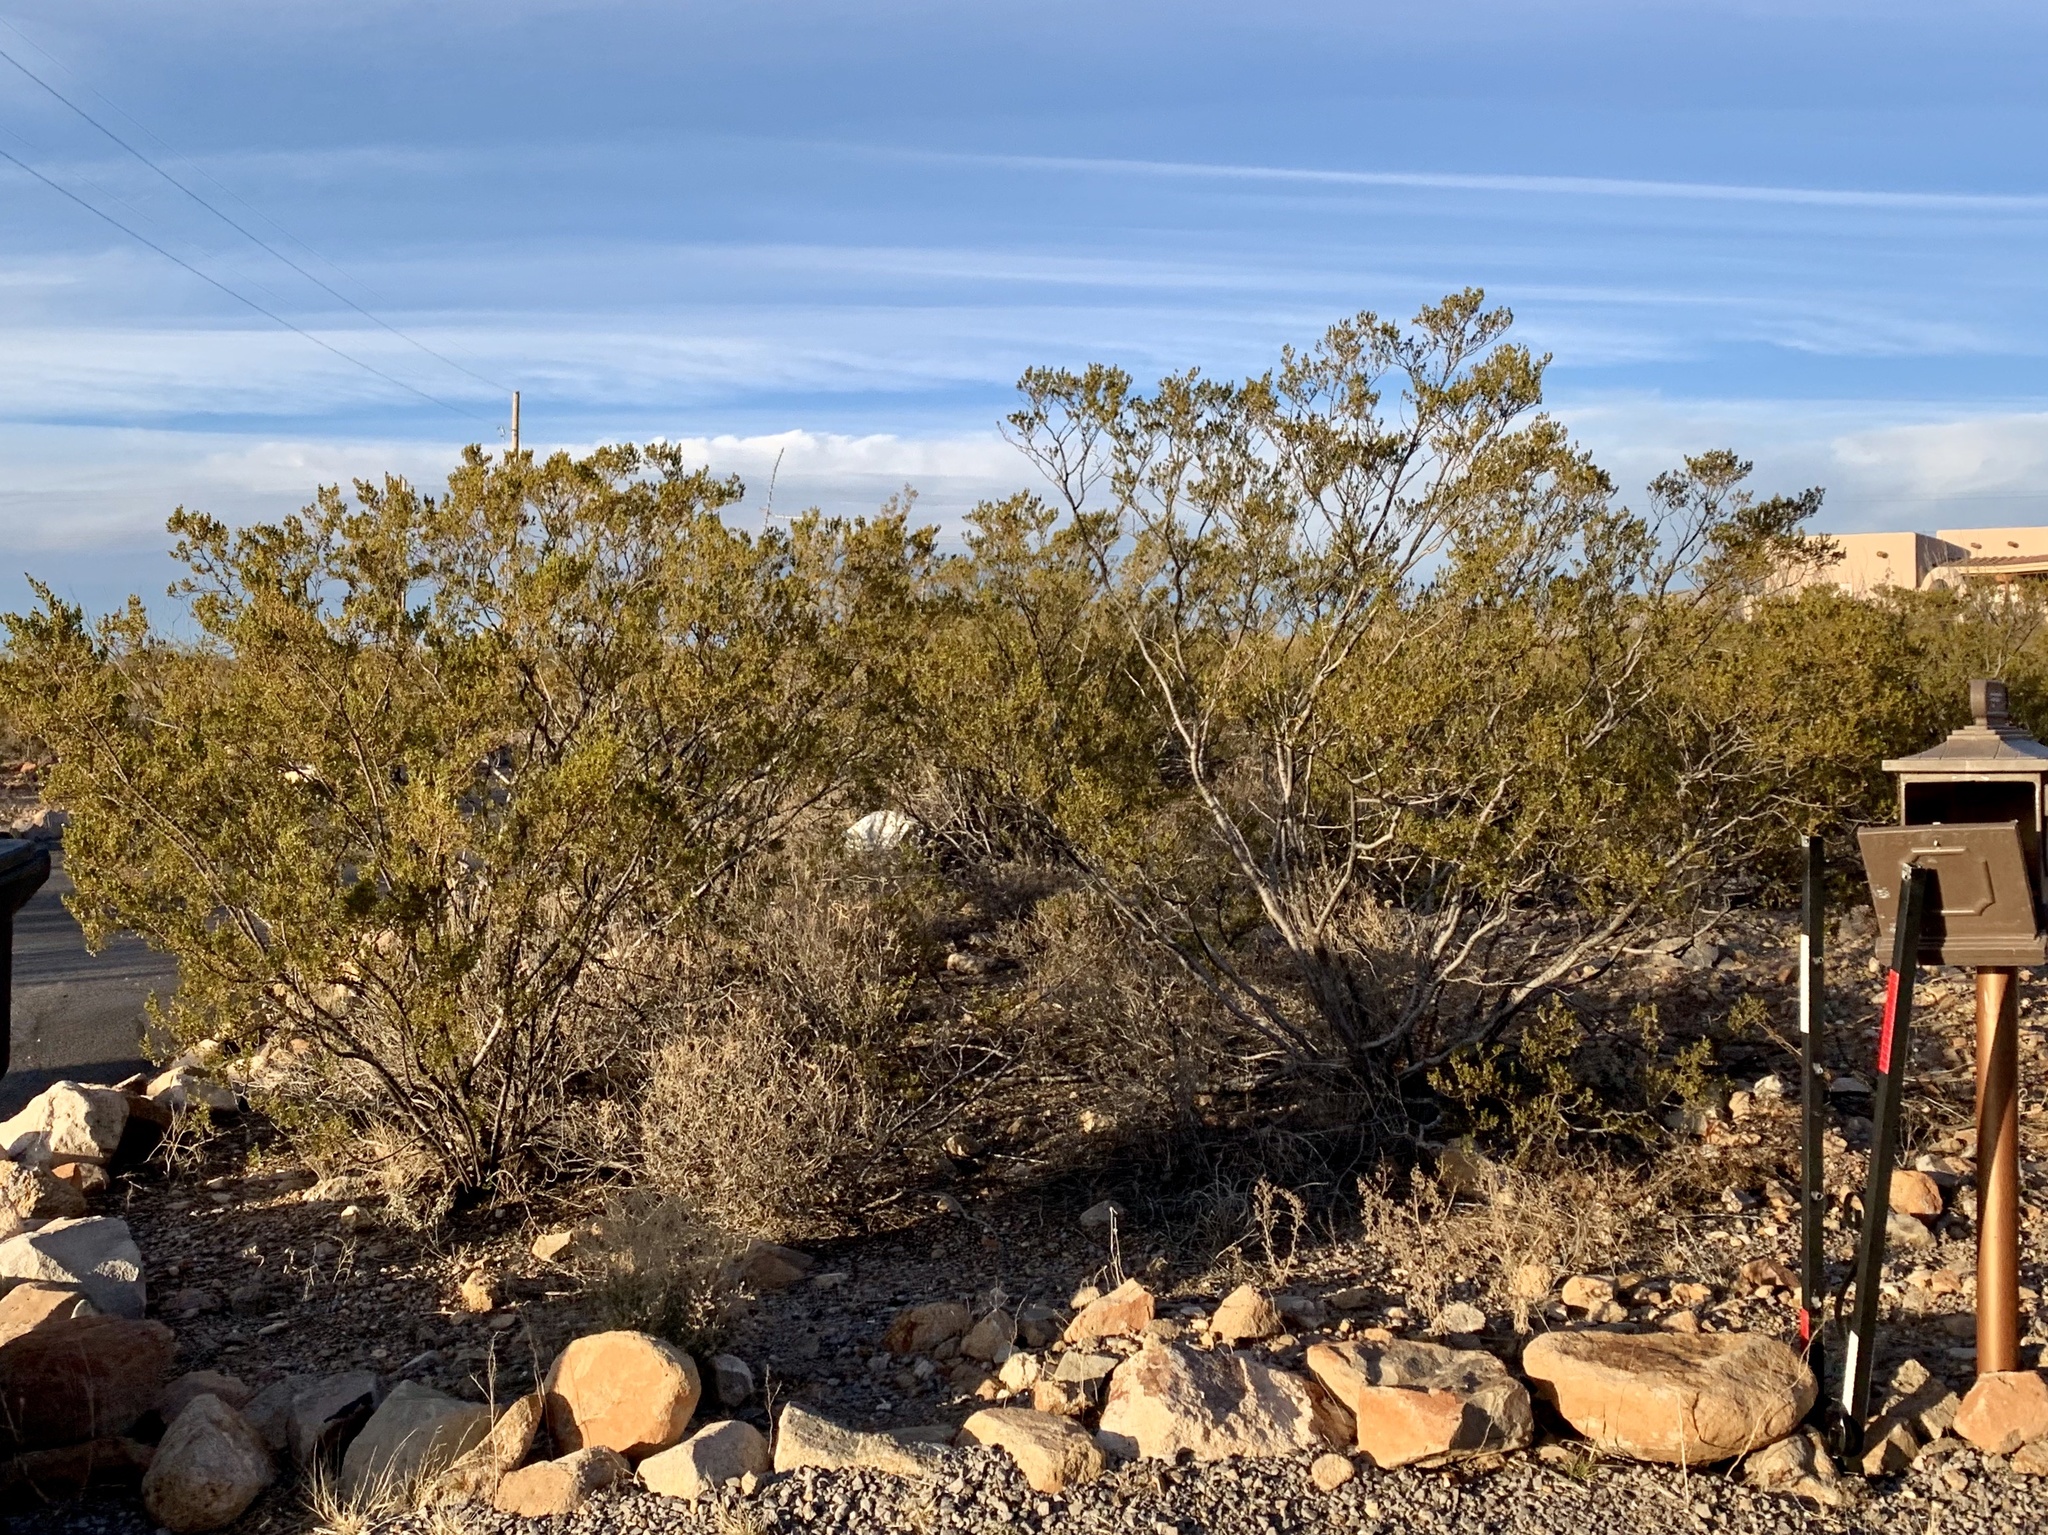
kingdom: Plantae
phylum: Tracheophyta
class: Magnoliopsida
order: Zygophyllales
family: Zygophyllaceae
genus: Larrea
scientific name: Larrea tridentata
